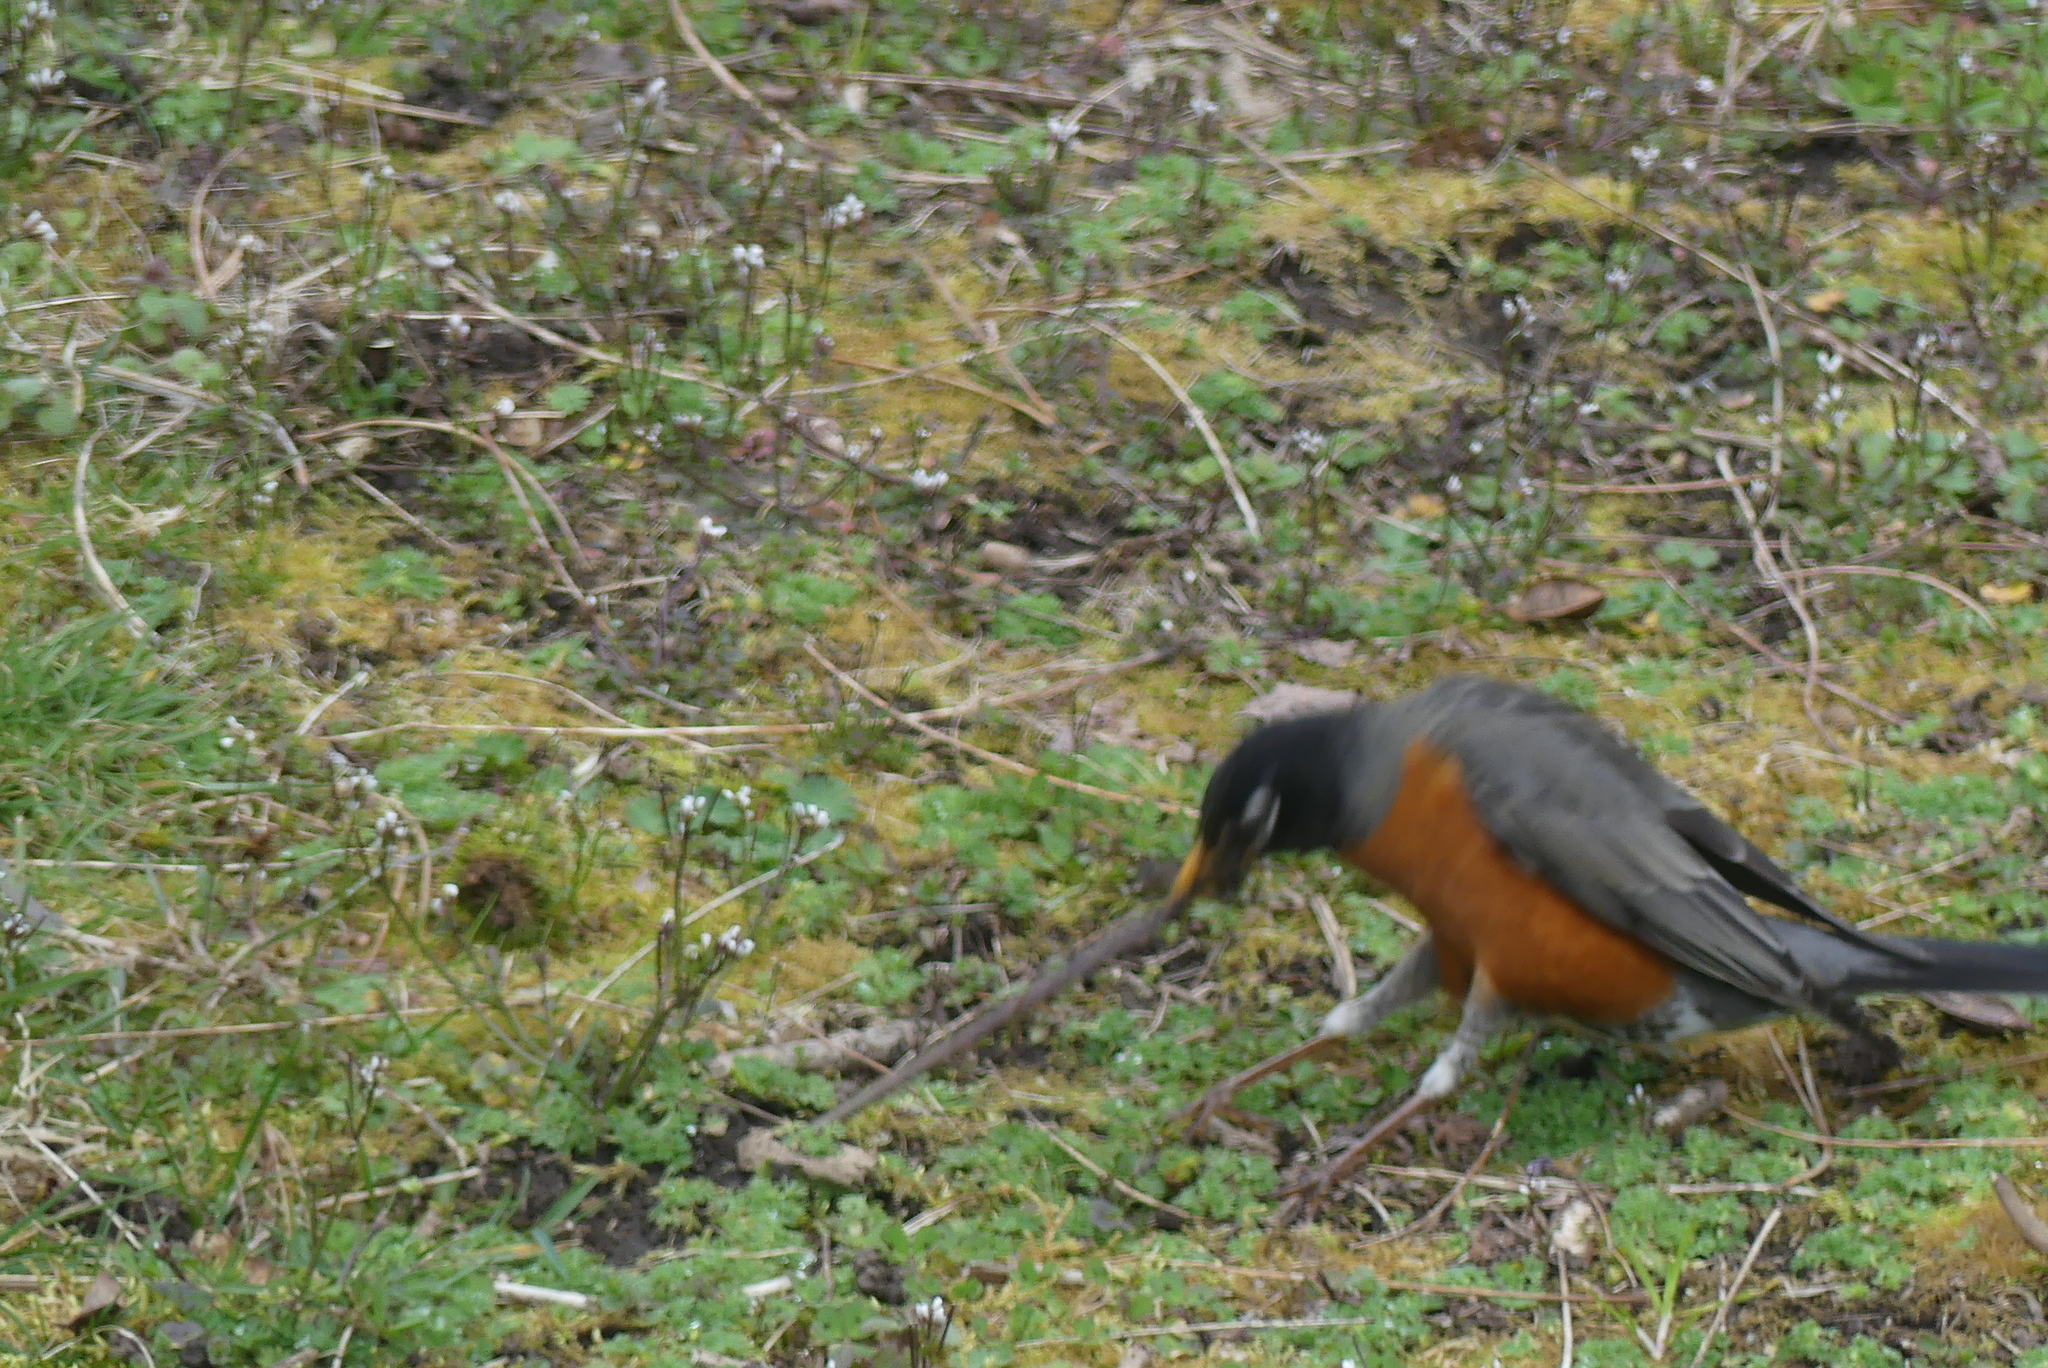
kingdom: Animalia
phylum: Chordata
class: Aves
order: Passeriformes
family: Turdidae
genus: Turdus
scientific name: Turdus migratorius
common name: American robin
